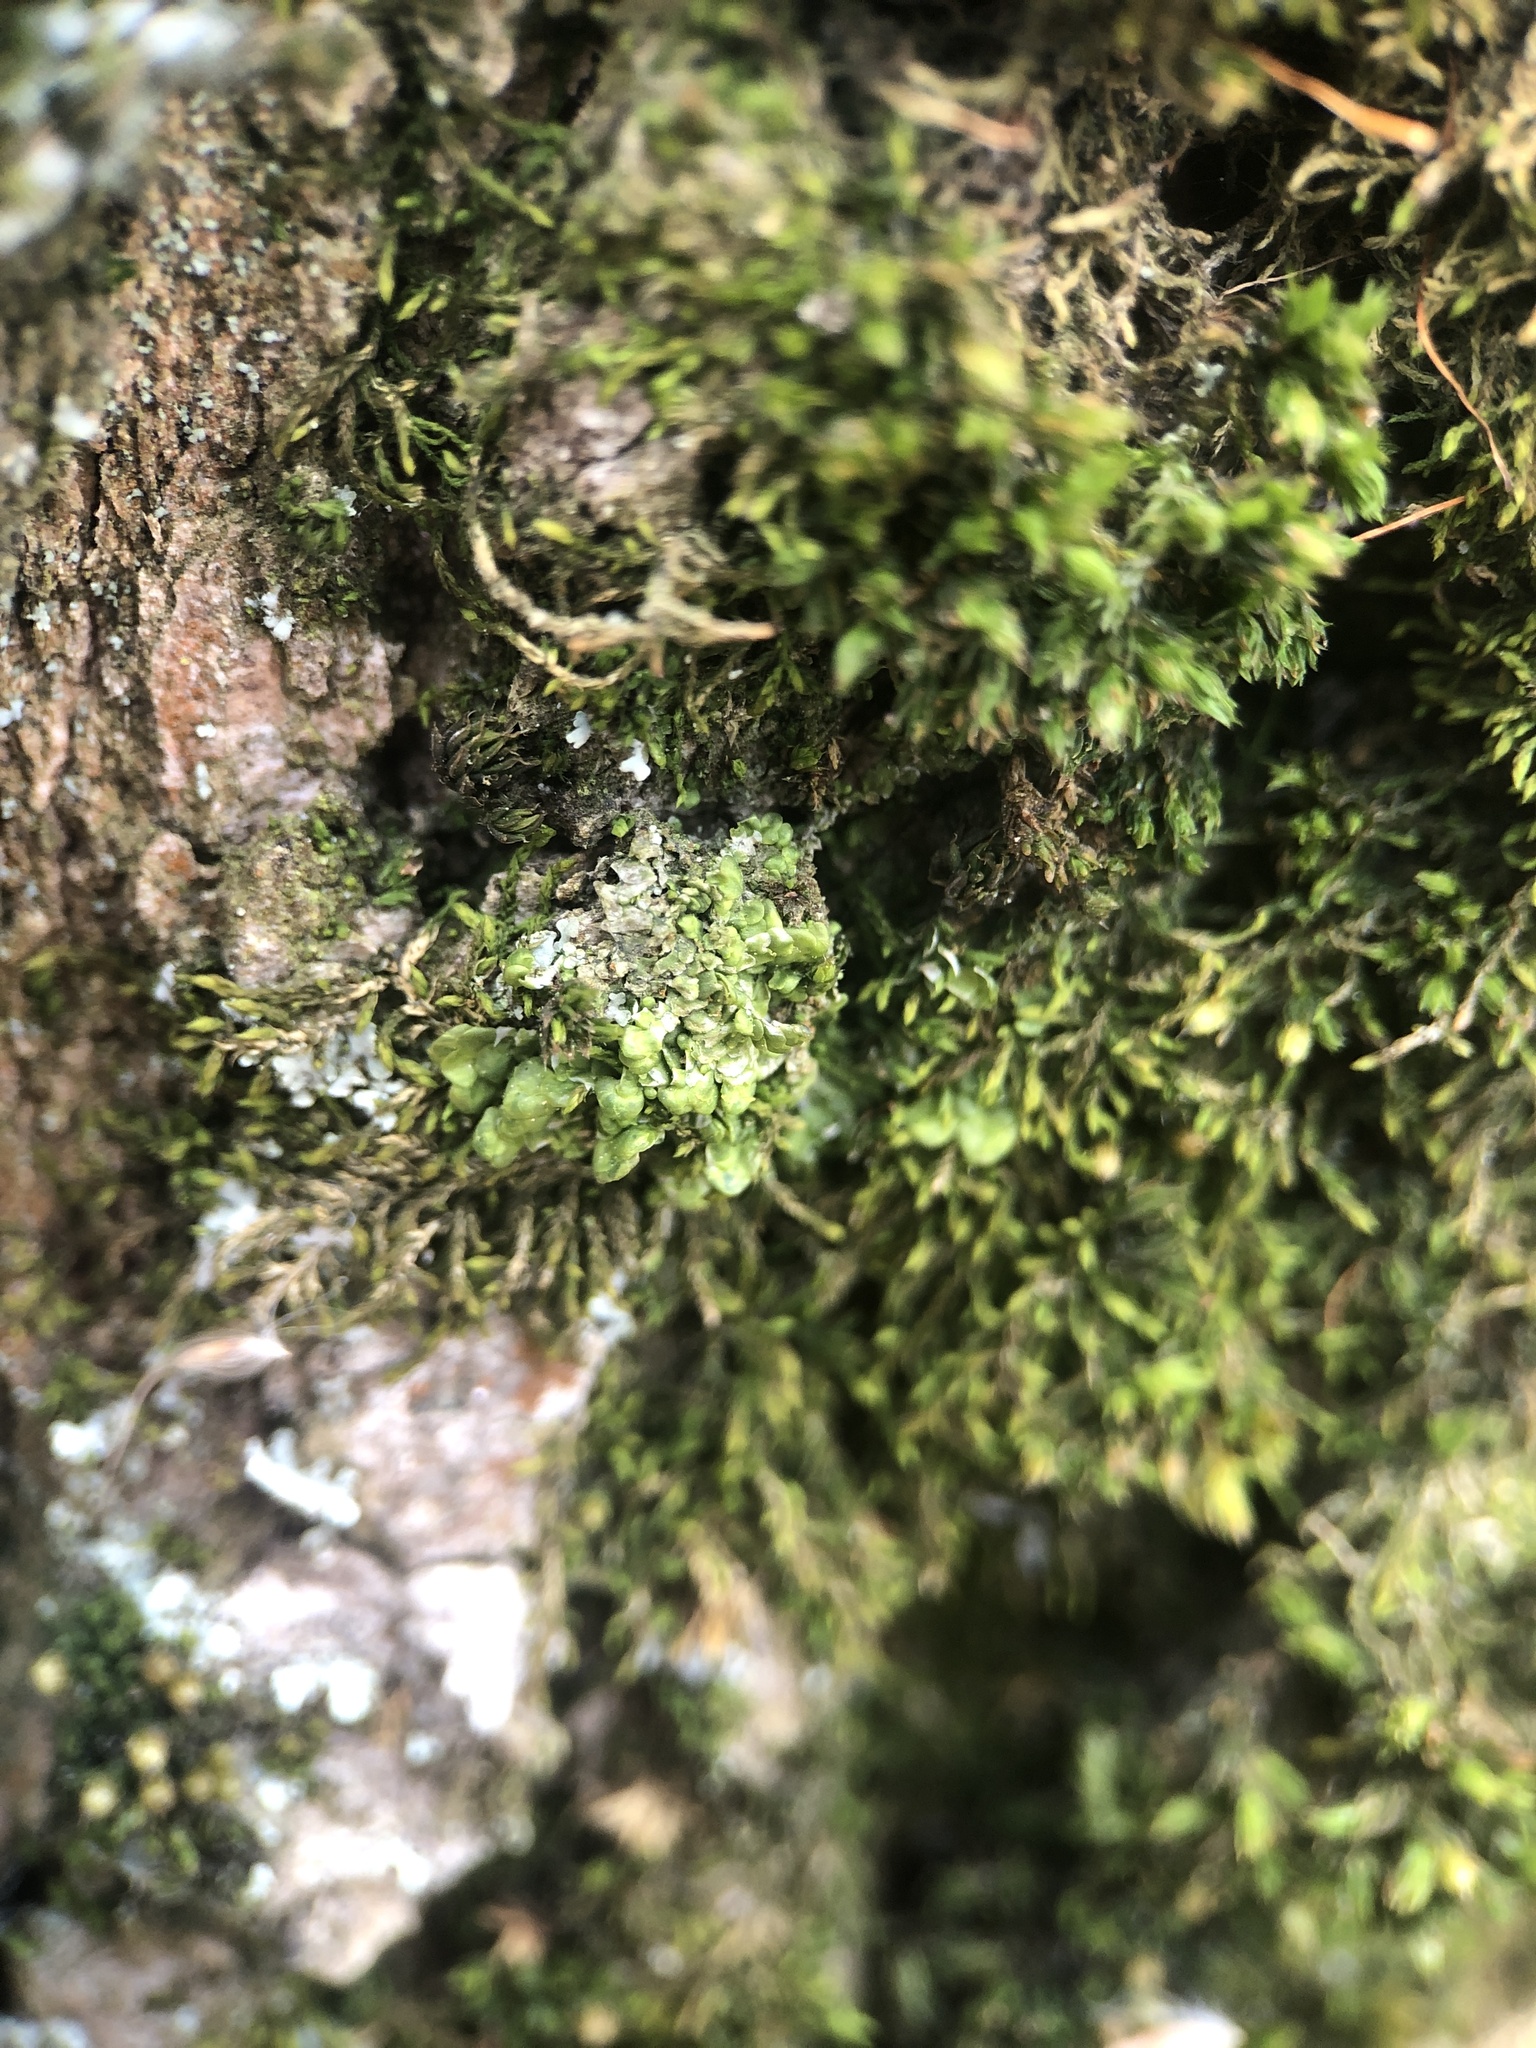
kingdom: Plantae
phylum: Marchantiophyta
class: Jungermanniopsida
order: Porellales
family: Radulaceae
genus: Radula
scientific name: Radula complanata
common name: Flat-leaved scalewort
